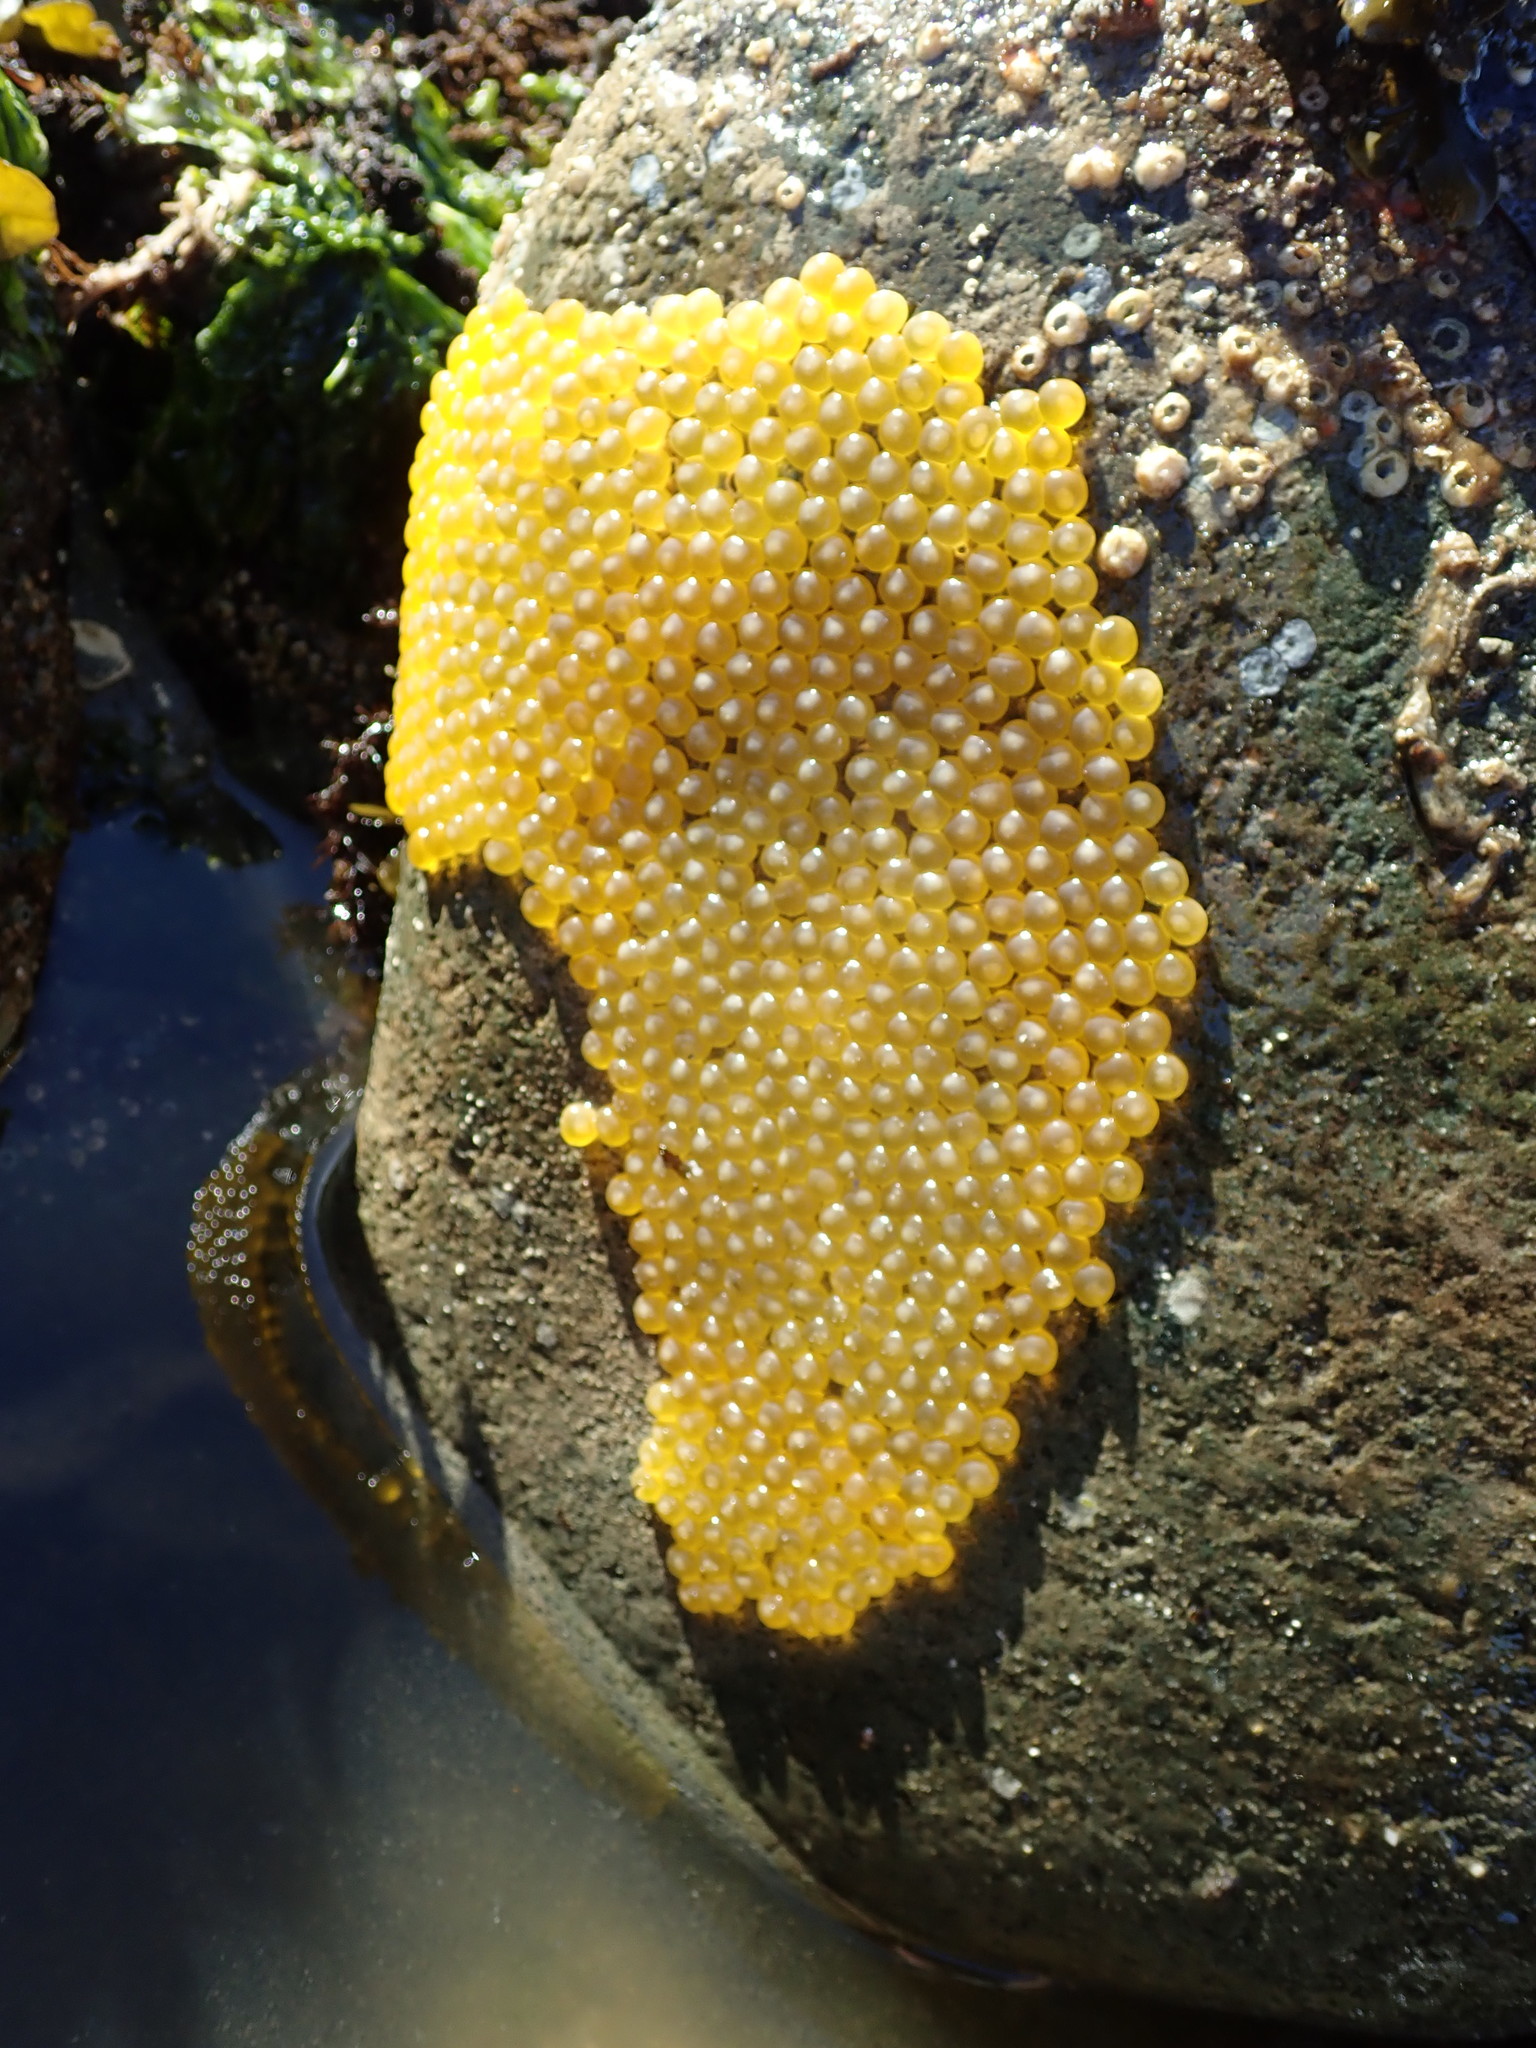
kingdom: Animalia
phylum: Chordata
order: Batrachoidiformes
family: Batrachoididae
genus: Porichthys
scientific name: Porichthys notatus
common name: Plainfin midshipman
